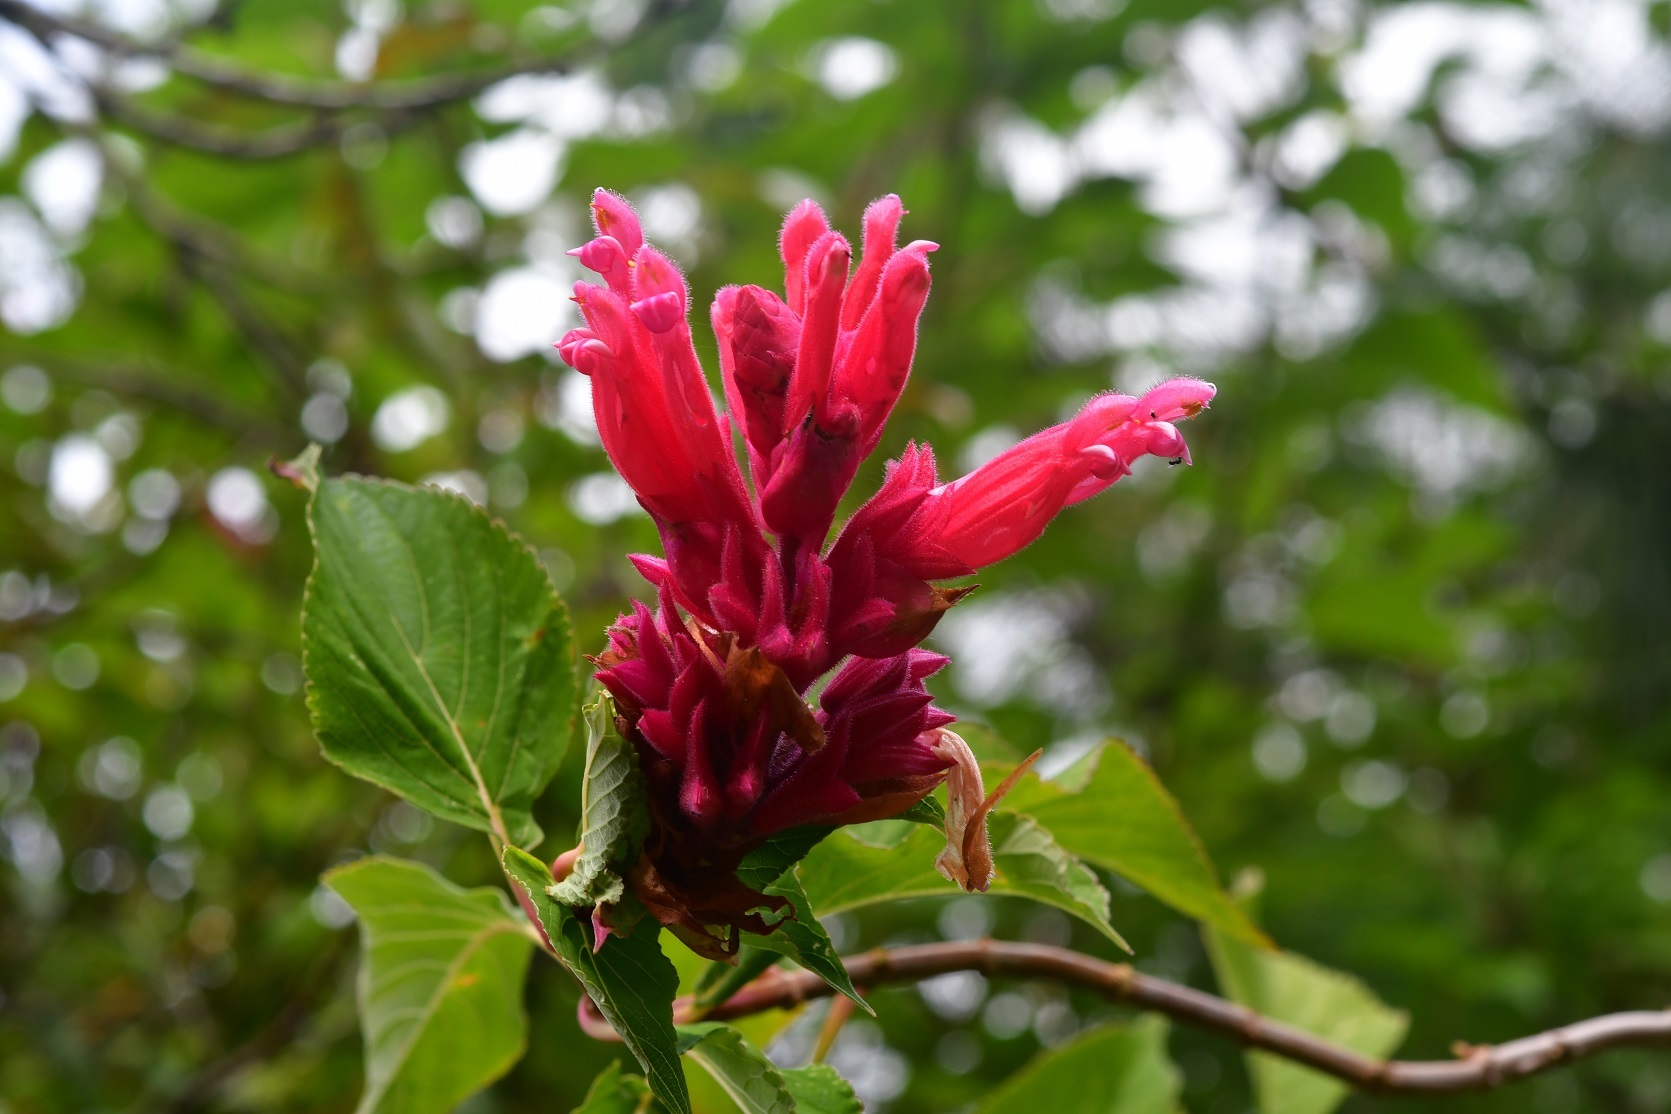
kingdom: Plantae
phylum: Tracheophyta
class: Magnoliopsida
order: Lamiales
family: Lamiaceae
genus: Salvia
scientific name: Salvia wagneriana
